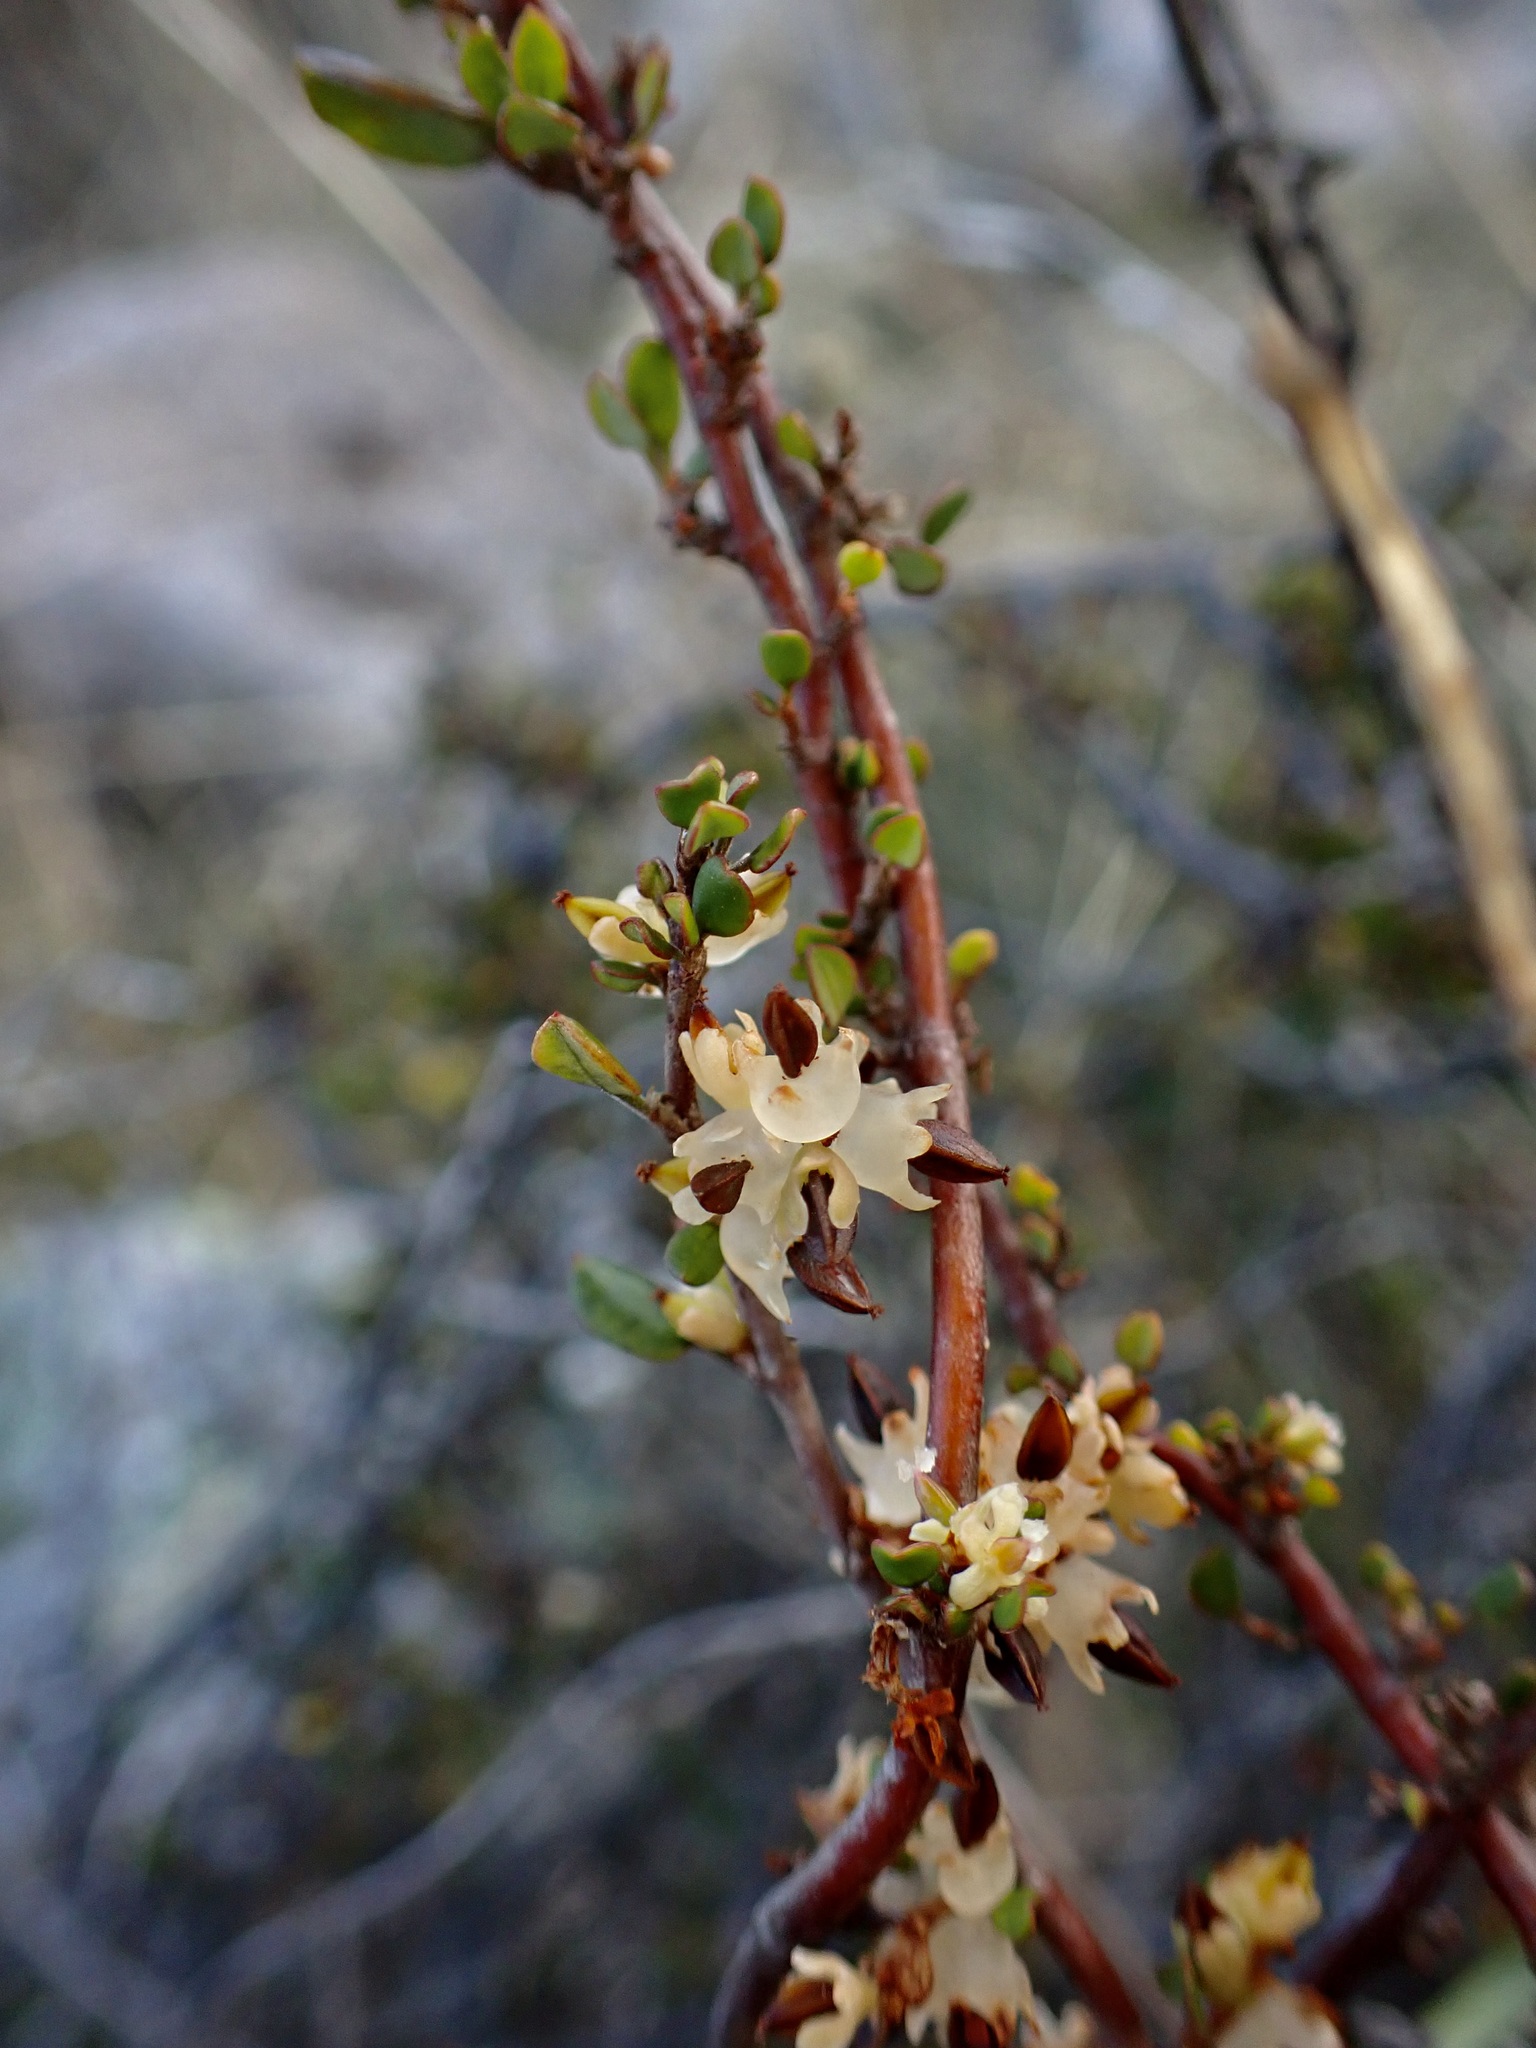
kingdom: Plantae
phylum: Tracheophyta
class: Magnoliopsida
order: Caryophyllales
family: Polygonaceae
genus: Muehlenbeckia
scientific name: Muehlenbeckia complexa
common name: Wireplant
